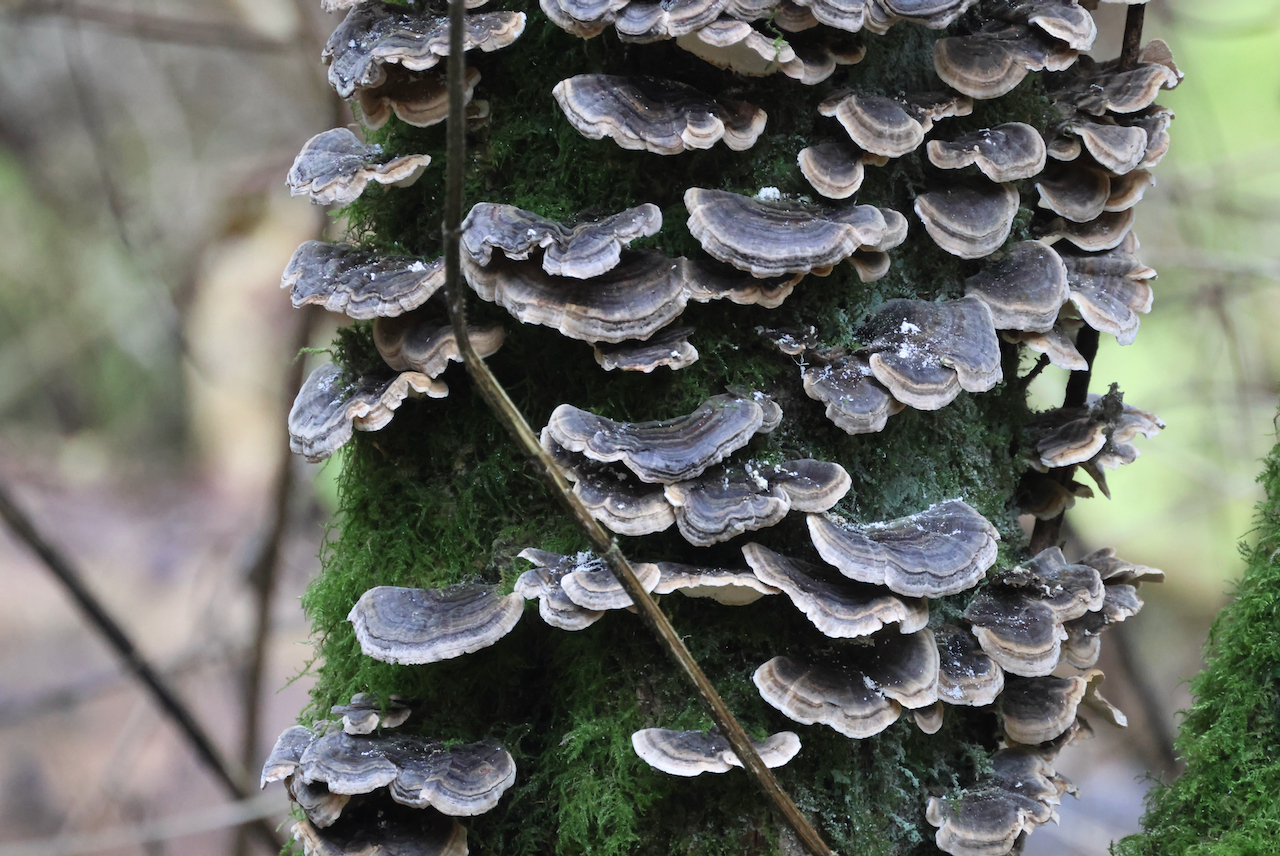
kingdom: Fungi
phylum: Basidiomycota
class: Agaricomycetes
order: Polyporales
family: Polyporaceae
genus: Trametes
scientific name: Trametes versicolor
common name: Turkeytail
